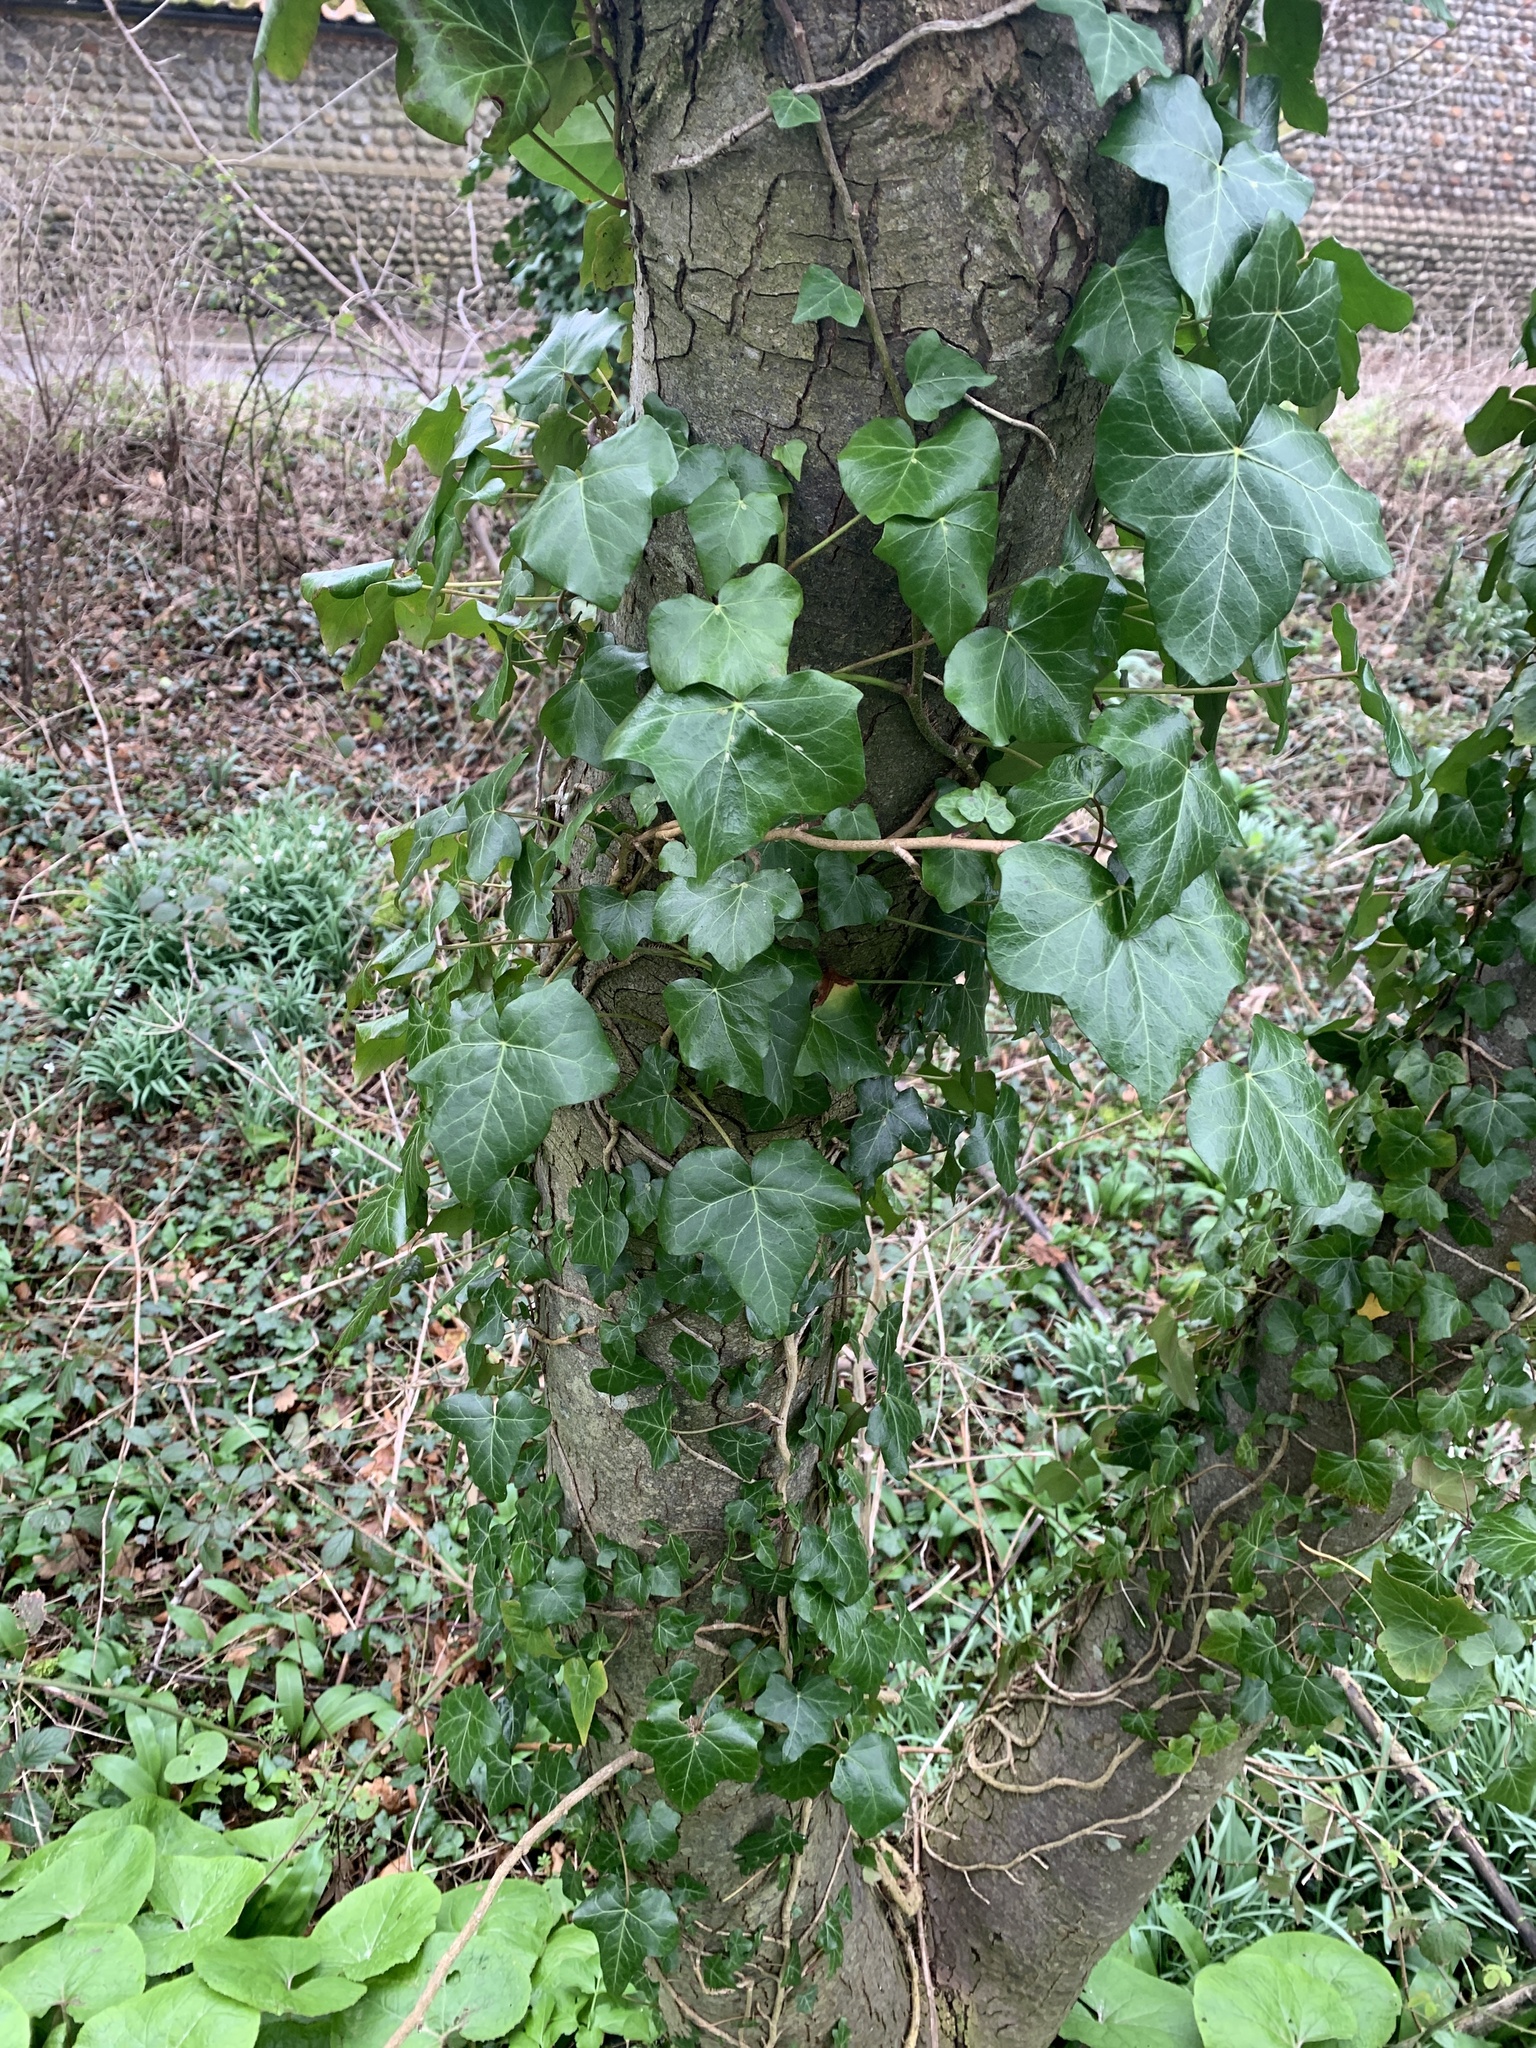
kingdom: Plantae
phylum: Tracheophyta
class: Magnoliopsida
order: Apiales
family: Araliaceae
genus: Hedera
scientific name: Hedera helix
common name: Ivy
